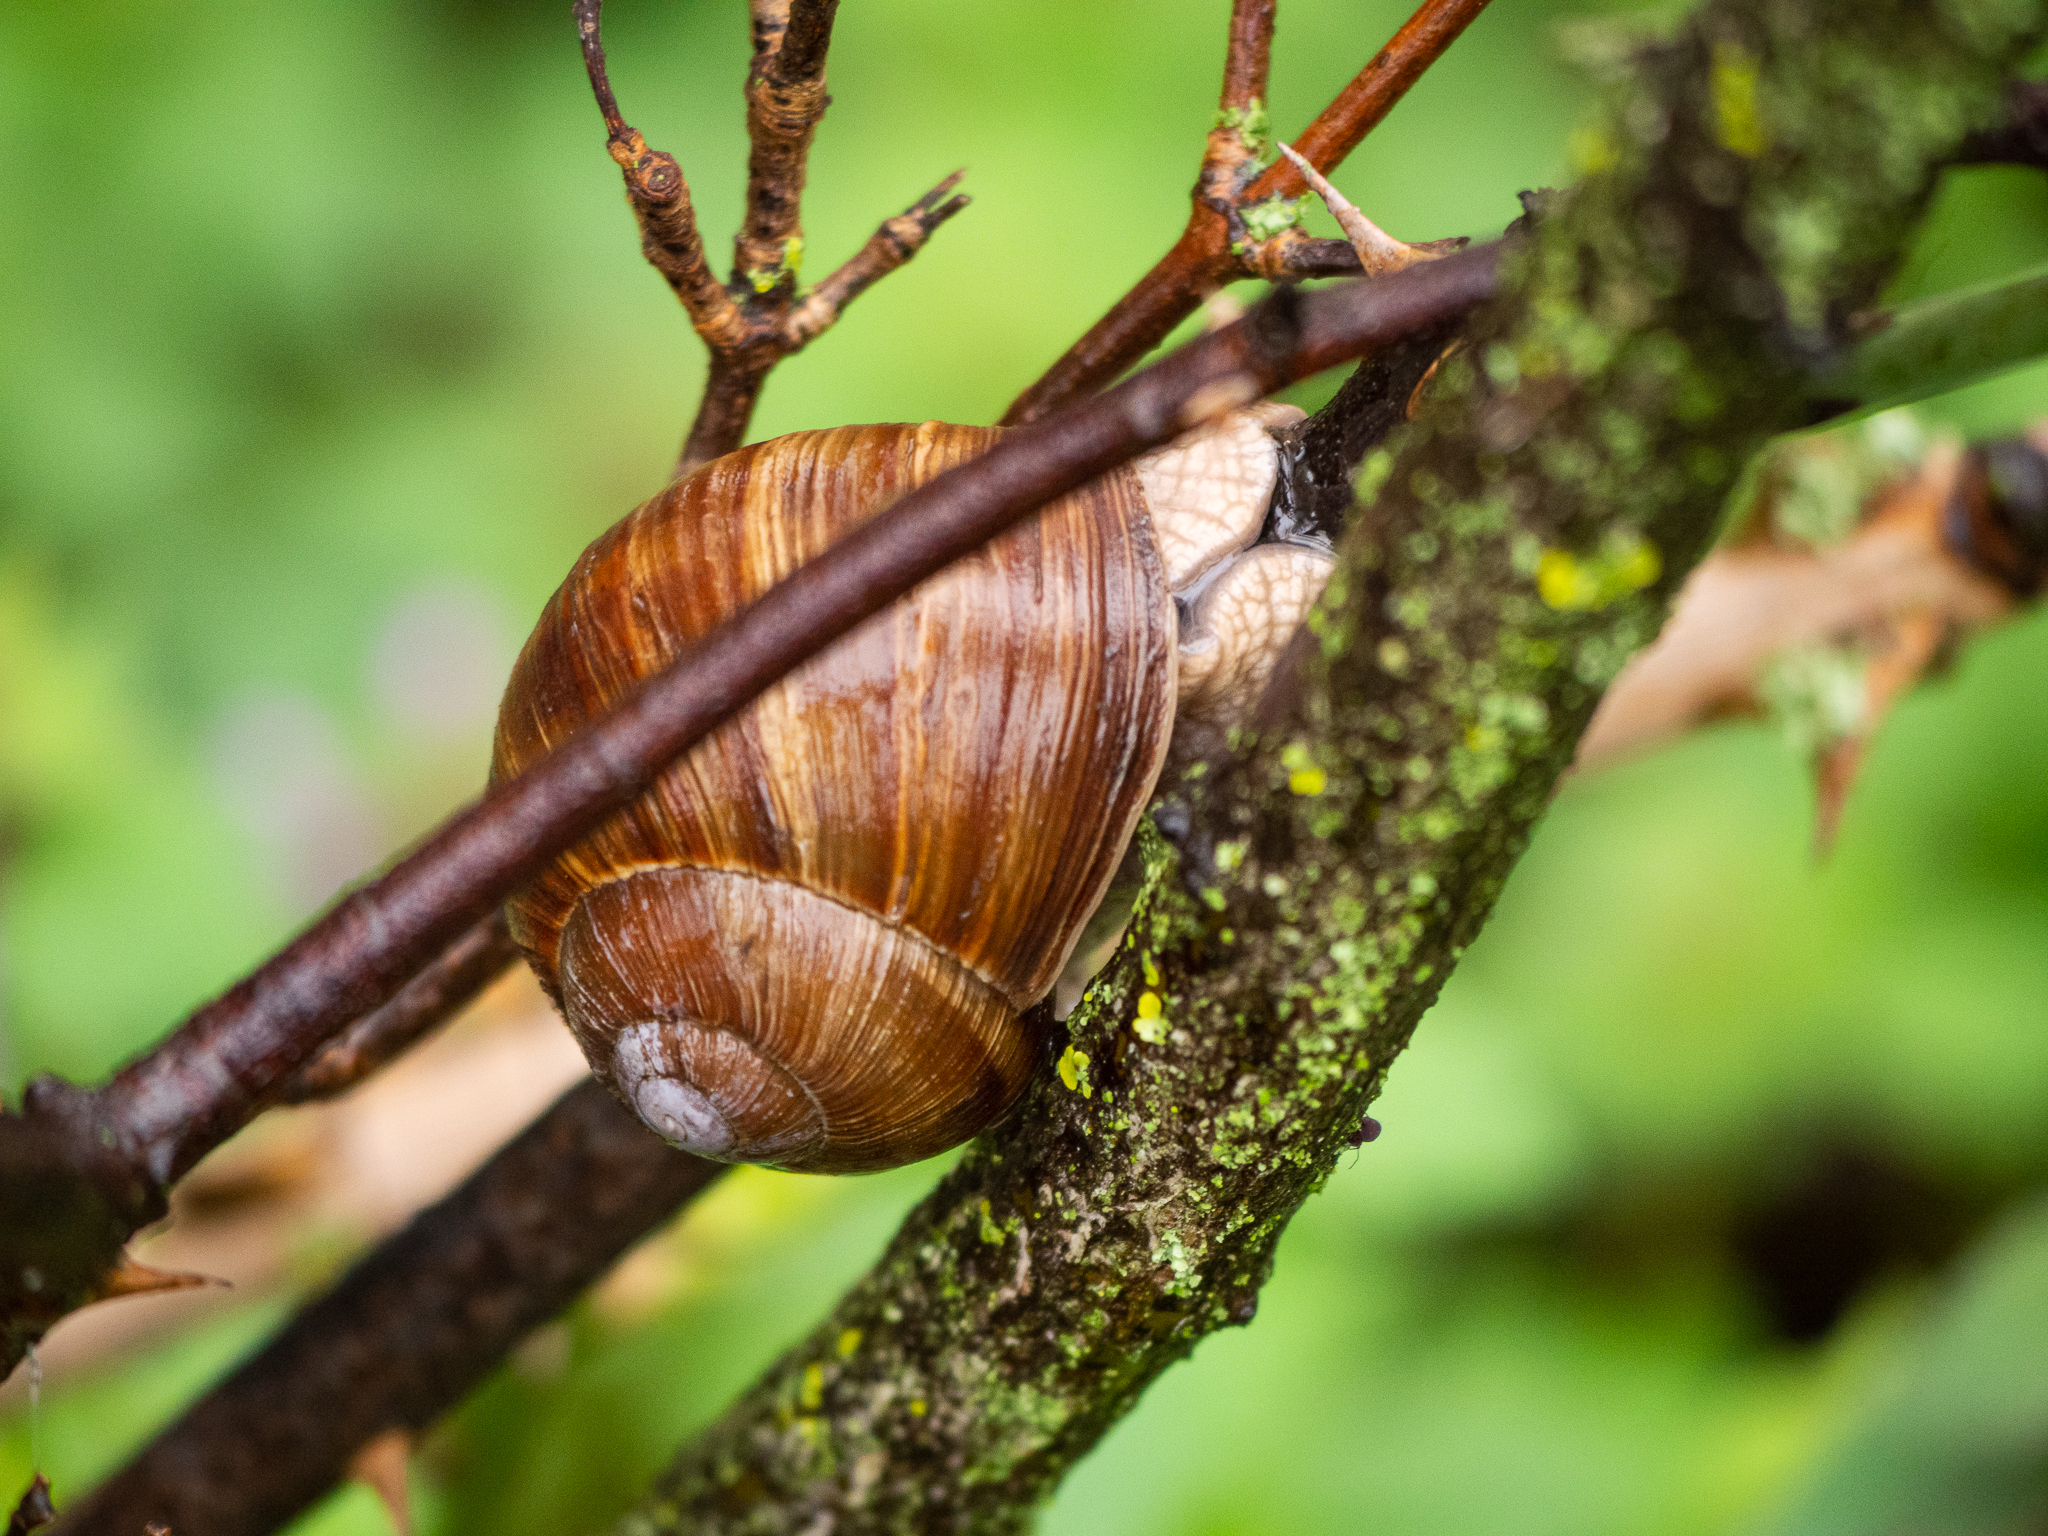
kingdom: Animalia
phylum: Mollusca
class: Gastropoda
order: Stylommatophora
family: Helicidae
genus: Helix
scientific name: Helix pomatia
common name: Roman snail
